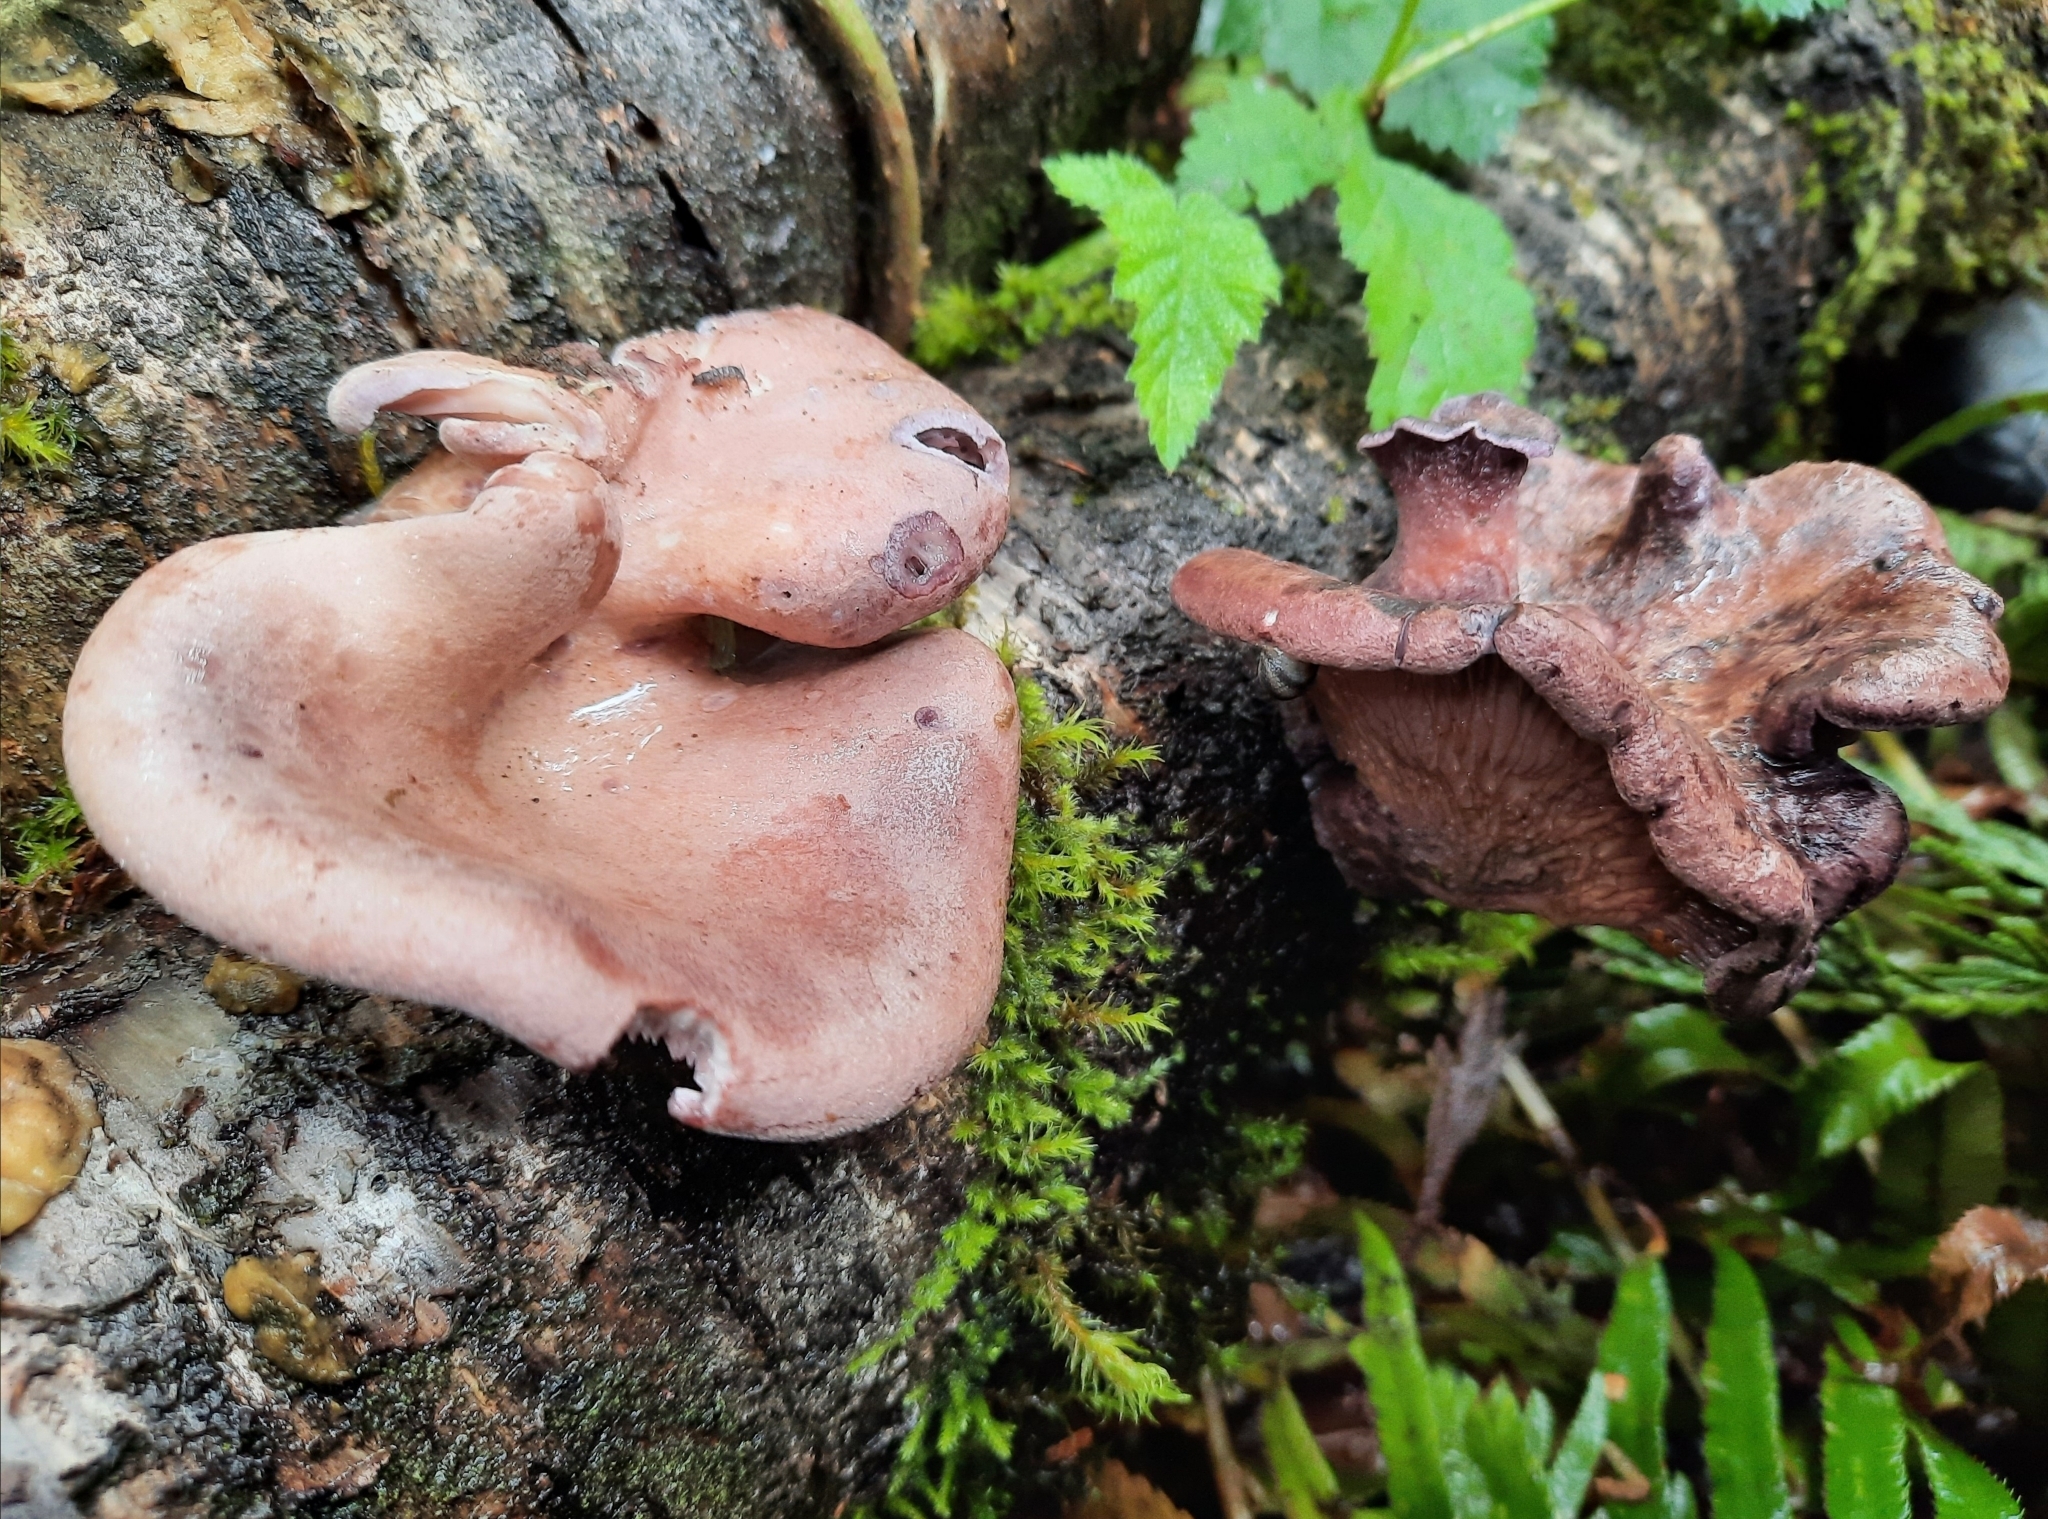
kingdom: Fungi
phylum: Basidiomycota
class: Agaricomycetes
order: Polyporales
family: Panaceae
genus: Panus
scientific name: Panus conchatus
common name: Lilac oysterling
